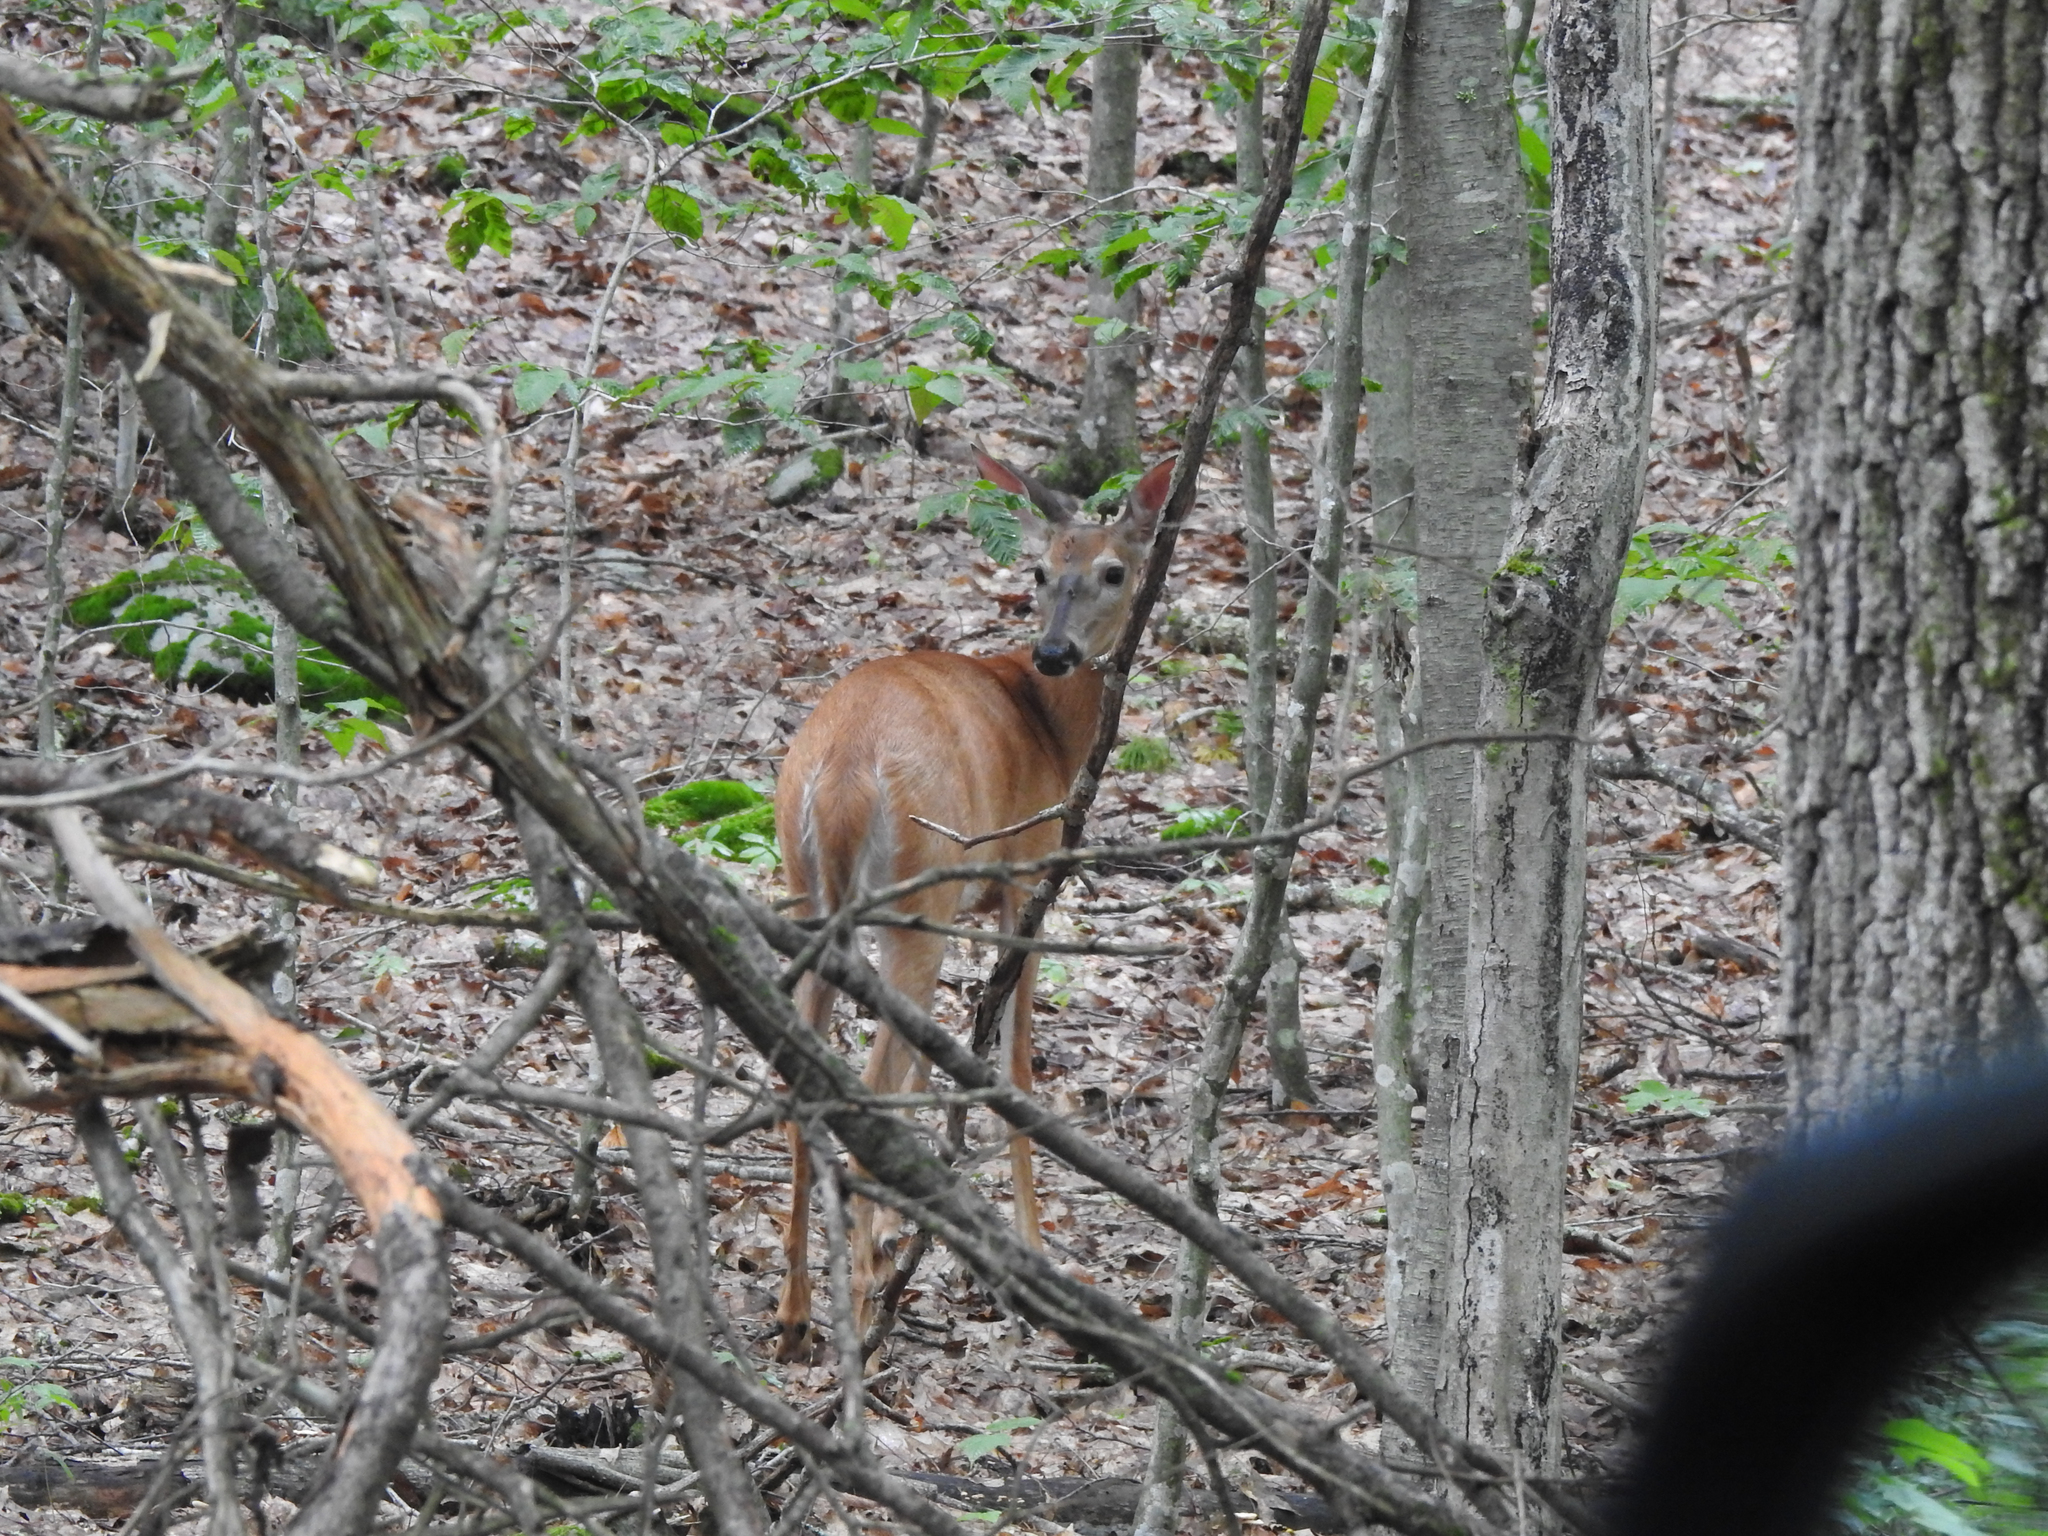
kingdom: Animalia
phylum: Chordata
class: Mammalia
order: Artiodactyla
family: Cervidae
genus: Odocoileus
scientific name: Odocoileus virginianus
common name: White-tailed deer
